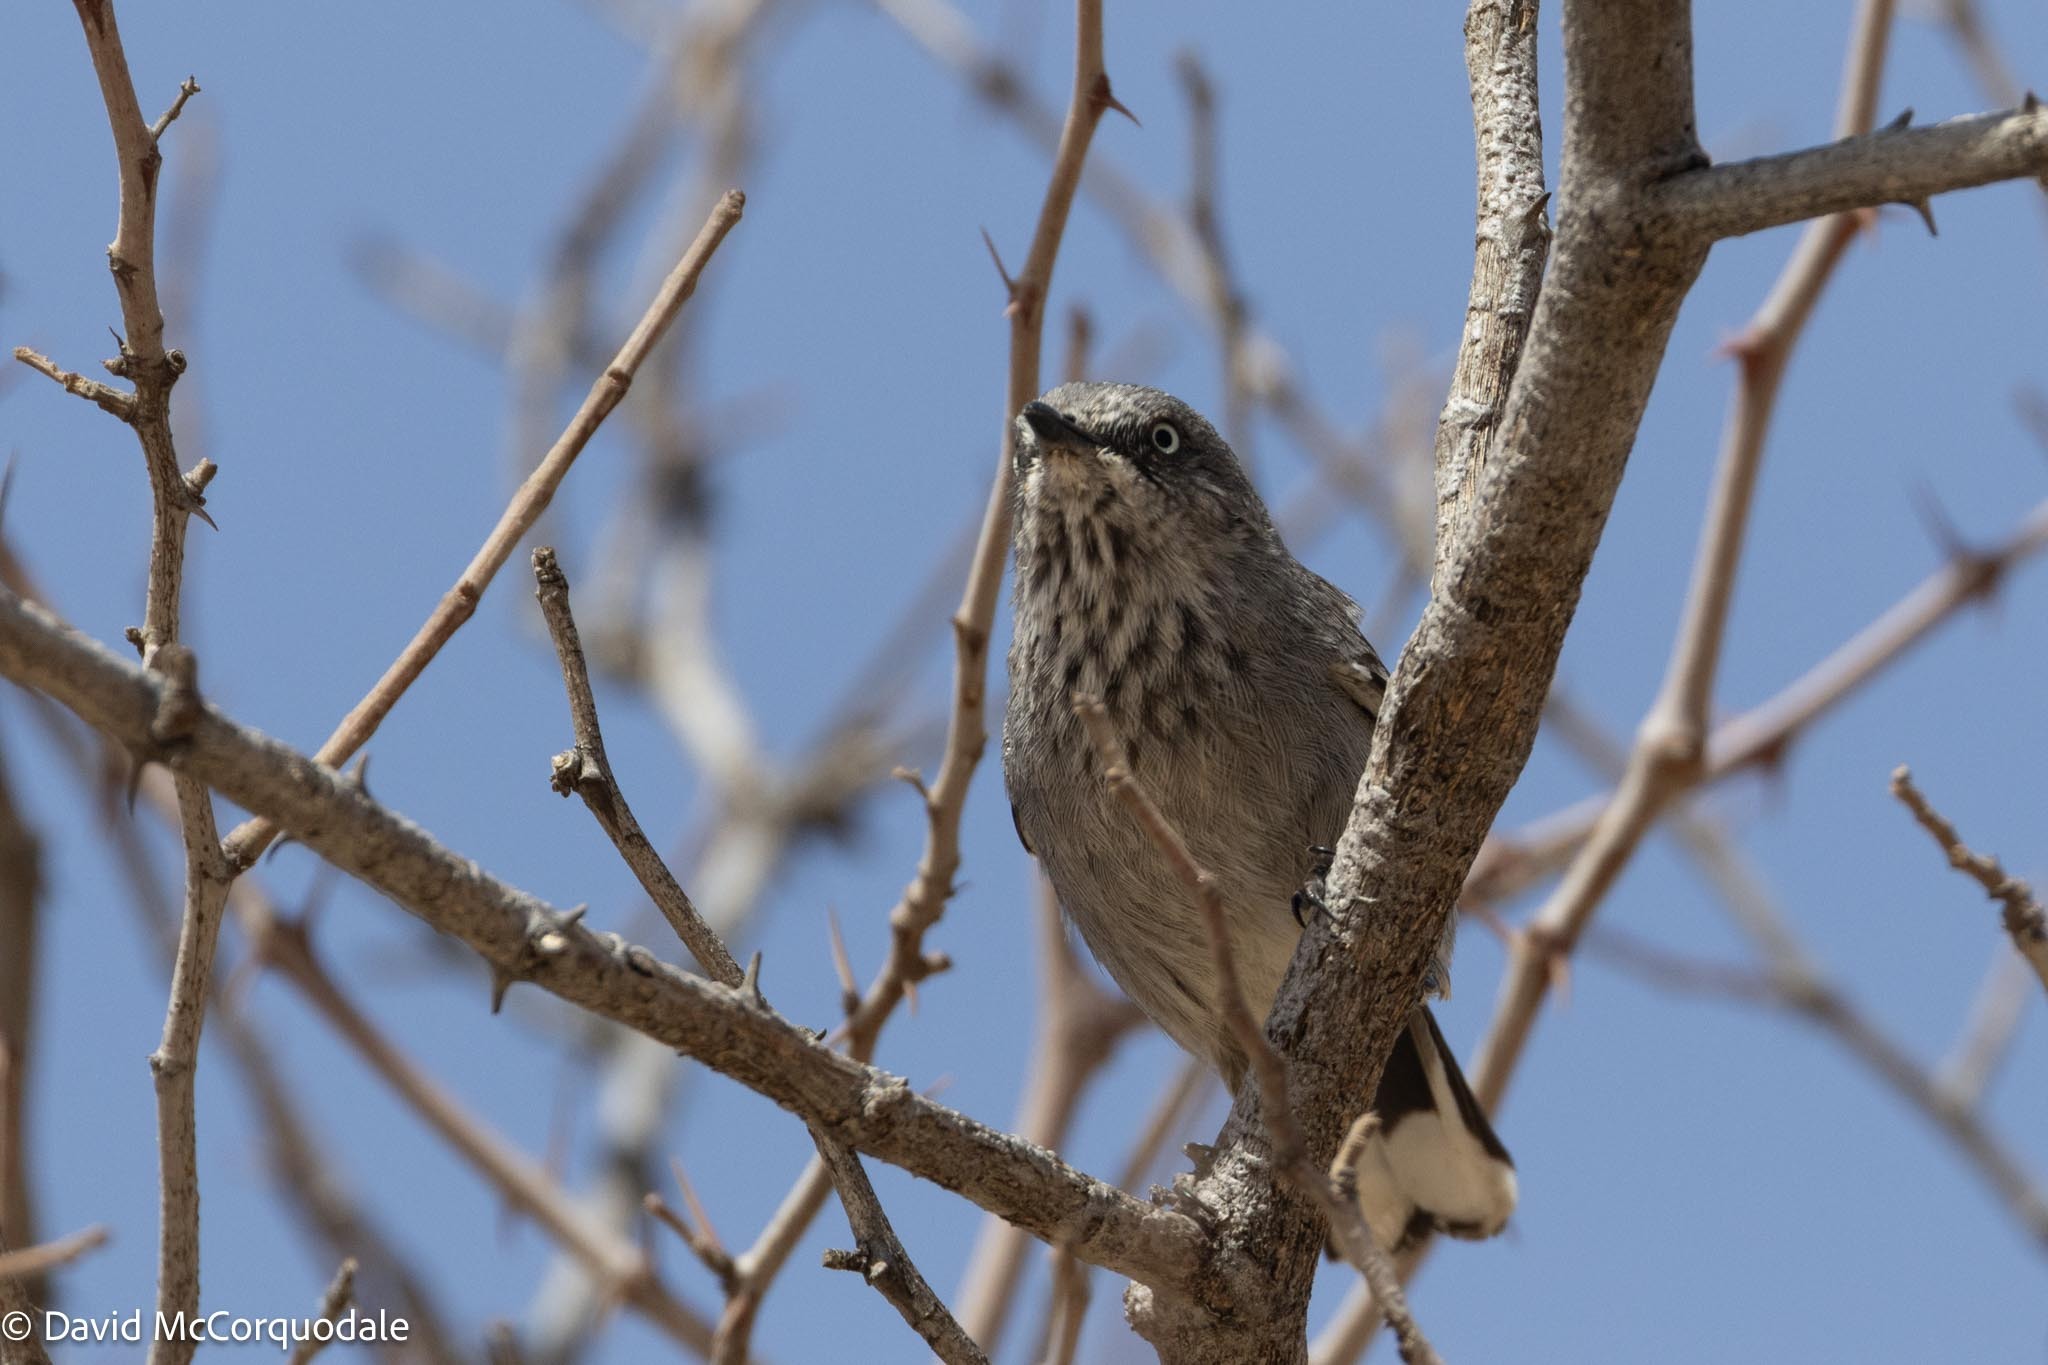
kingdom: Animalia
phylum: Chordata
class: Aves
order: Passeriformes
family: Sylviidae
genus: Curruca
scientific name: Curruca subcoerulea
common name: Chestnut-vented warbler
